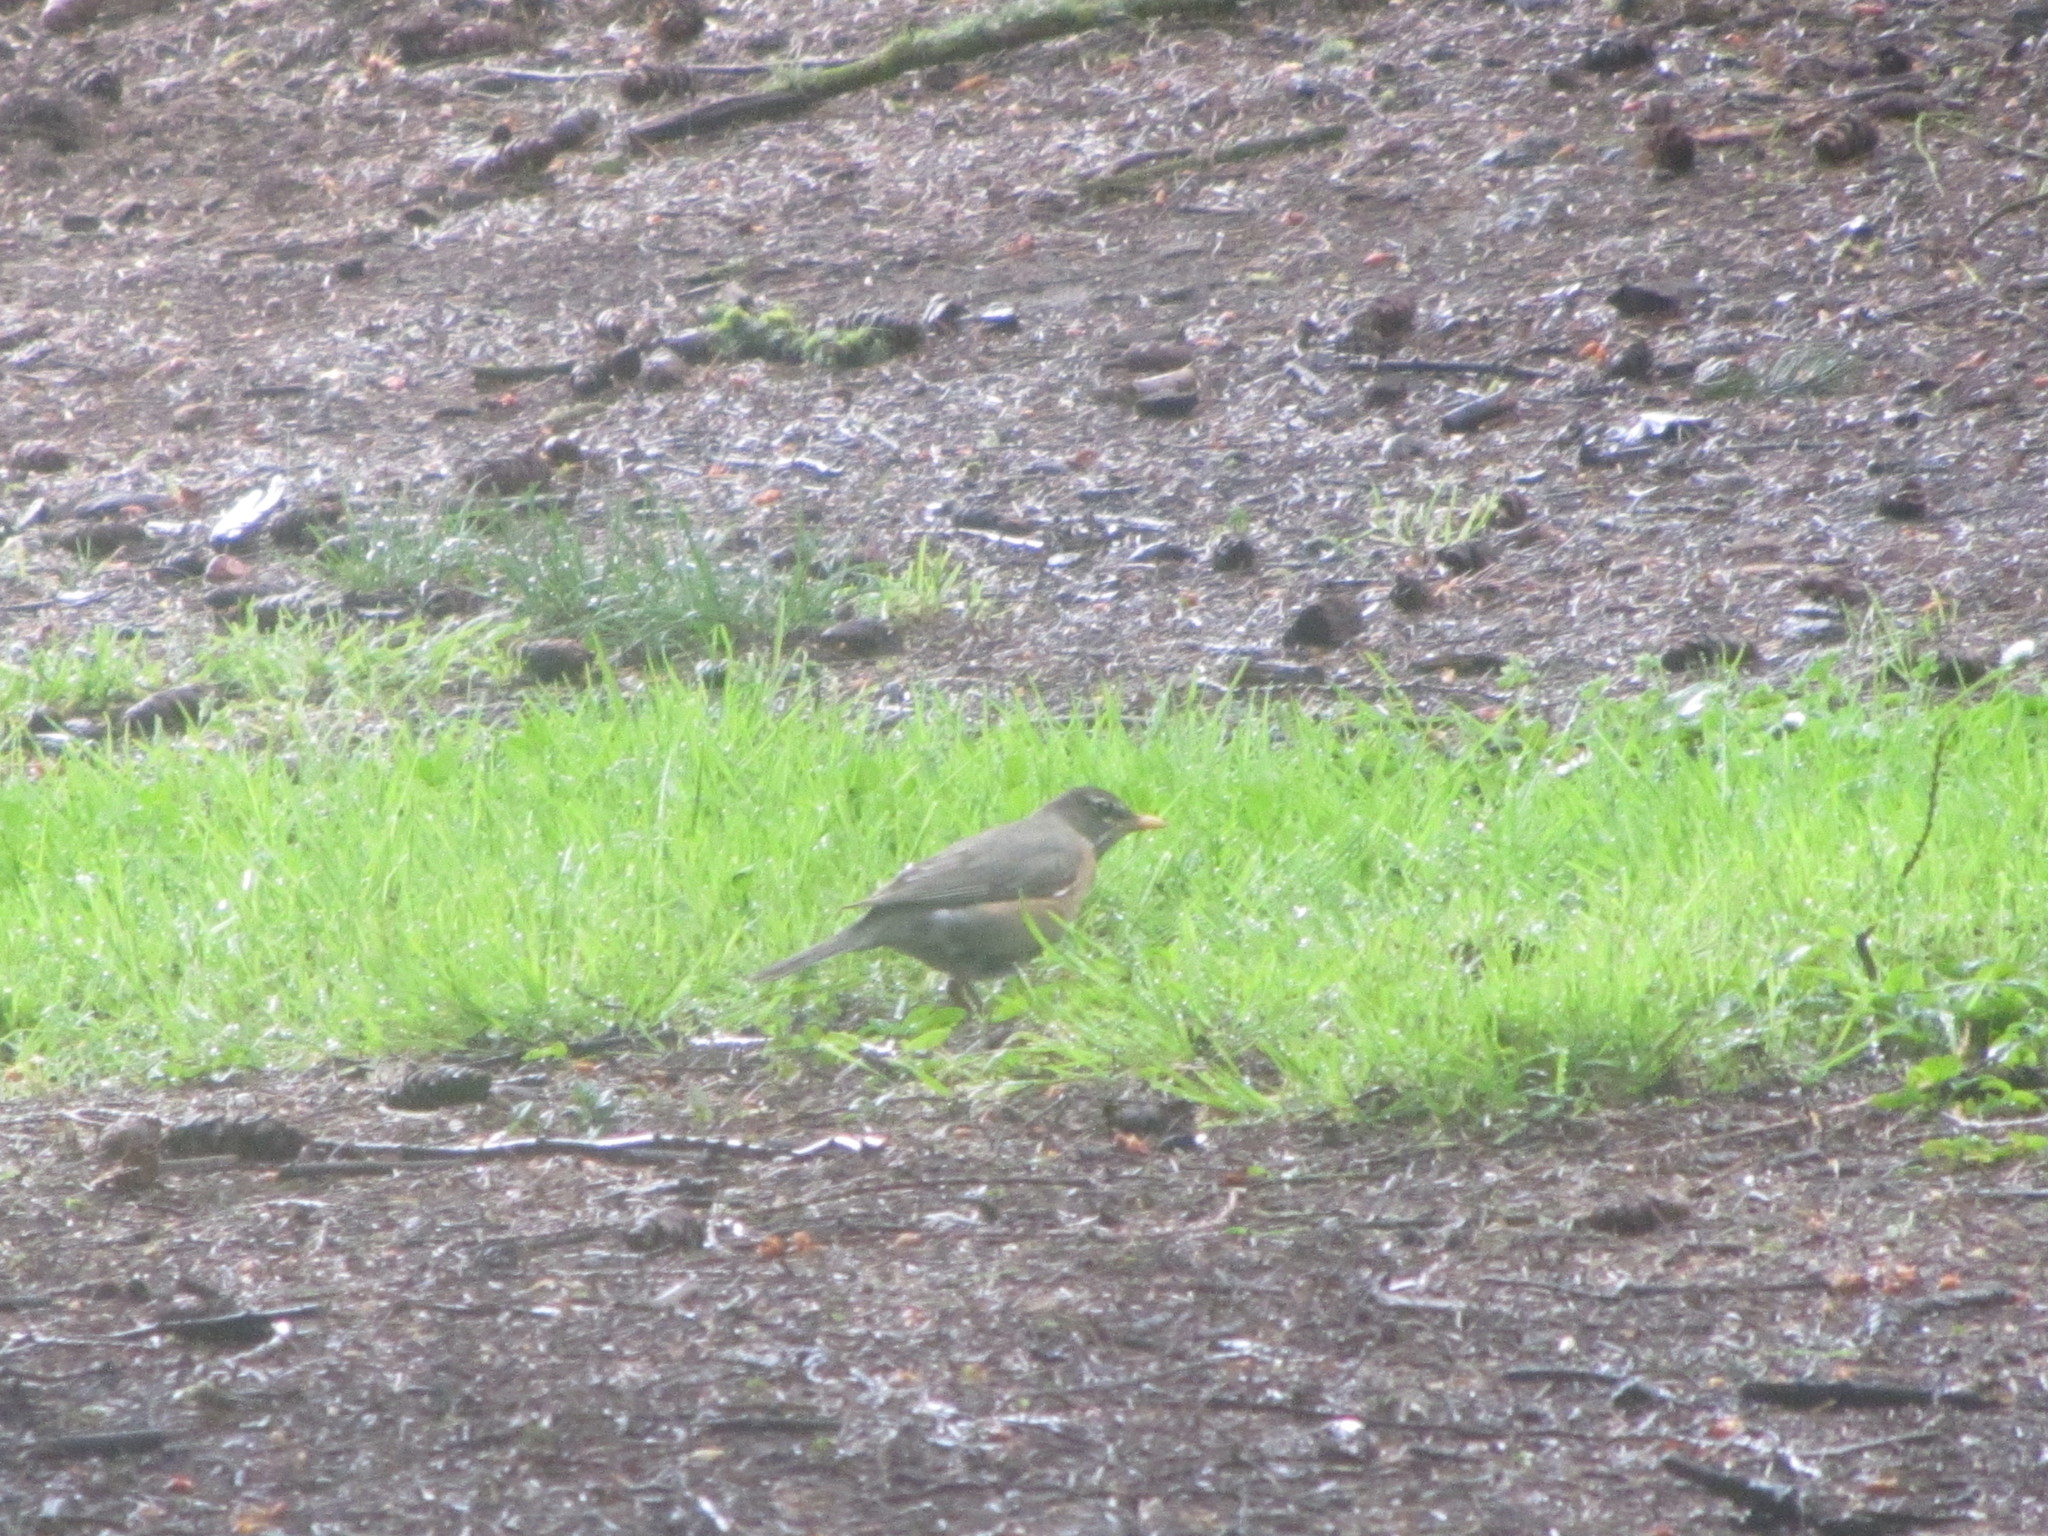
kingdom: Animalia
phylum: Chordata
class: Aves
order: Passeriformes
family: Turdidae
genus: Turdus
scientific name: Turdus migratorius
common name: American robin
